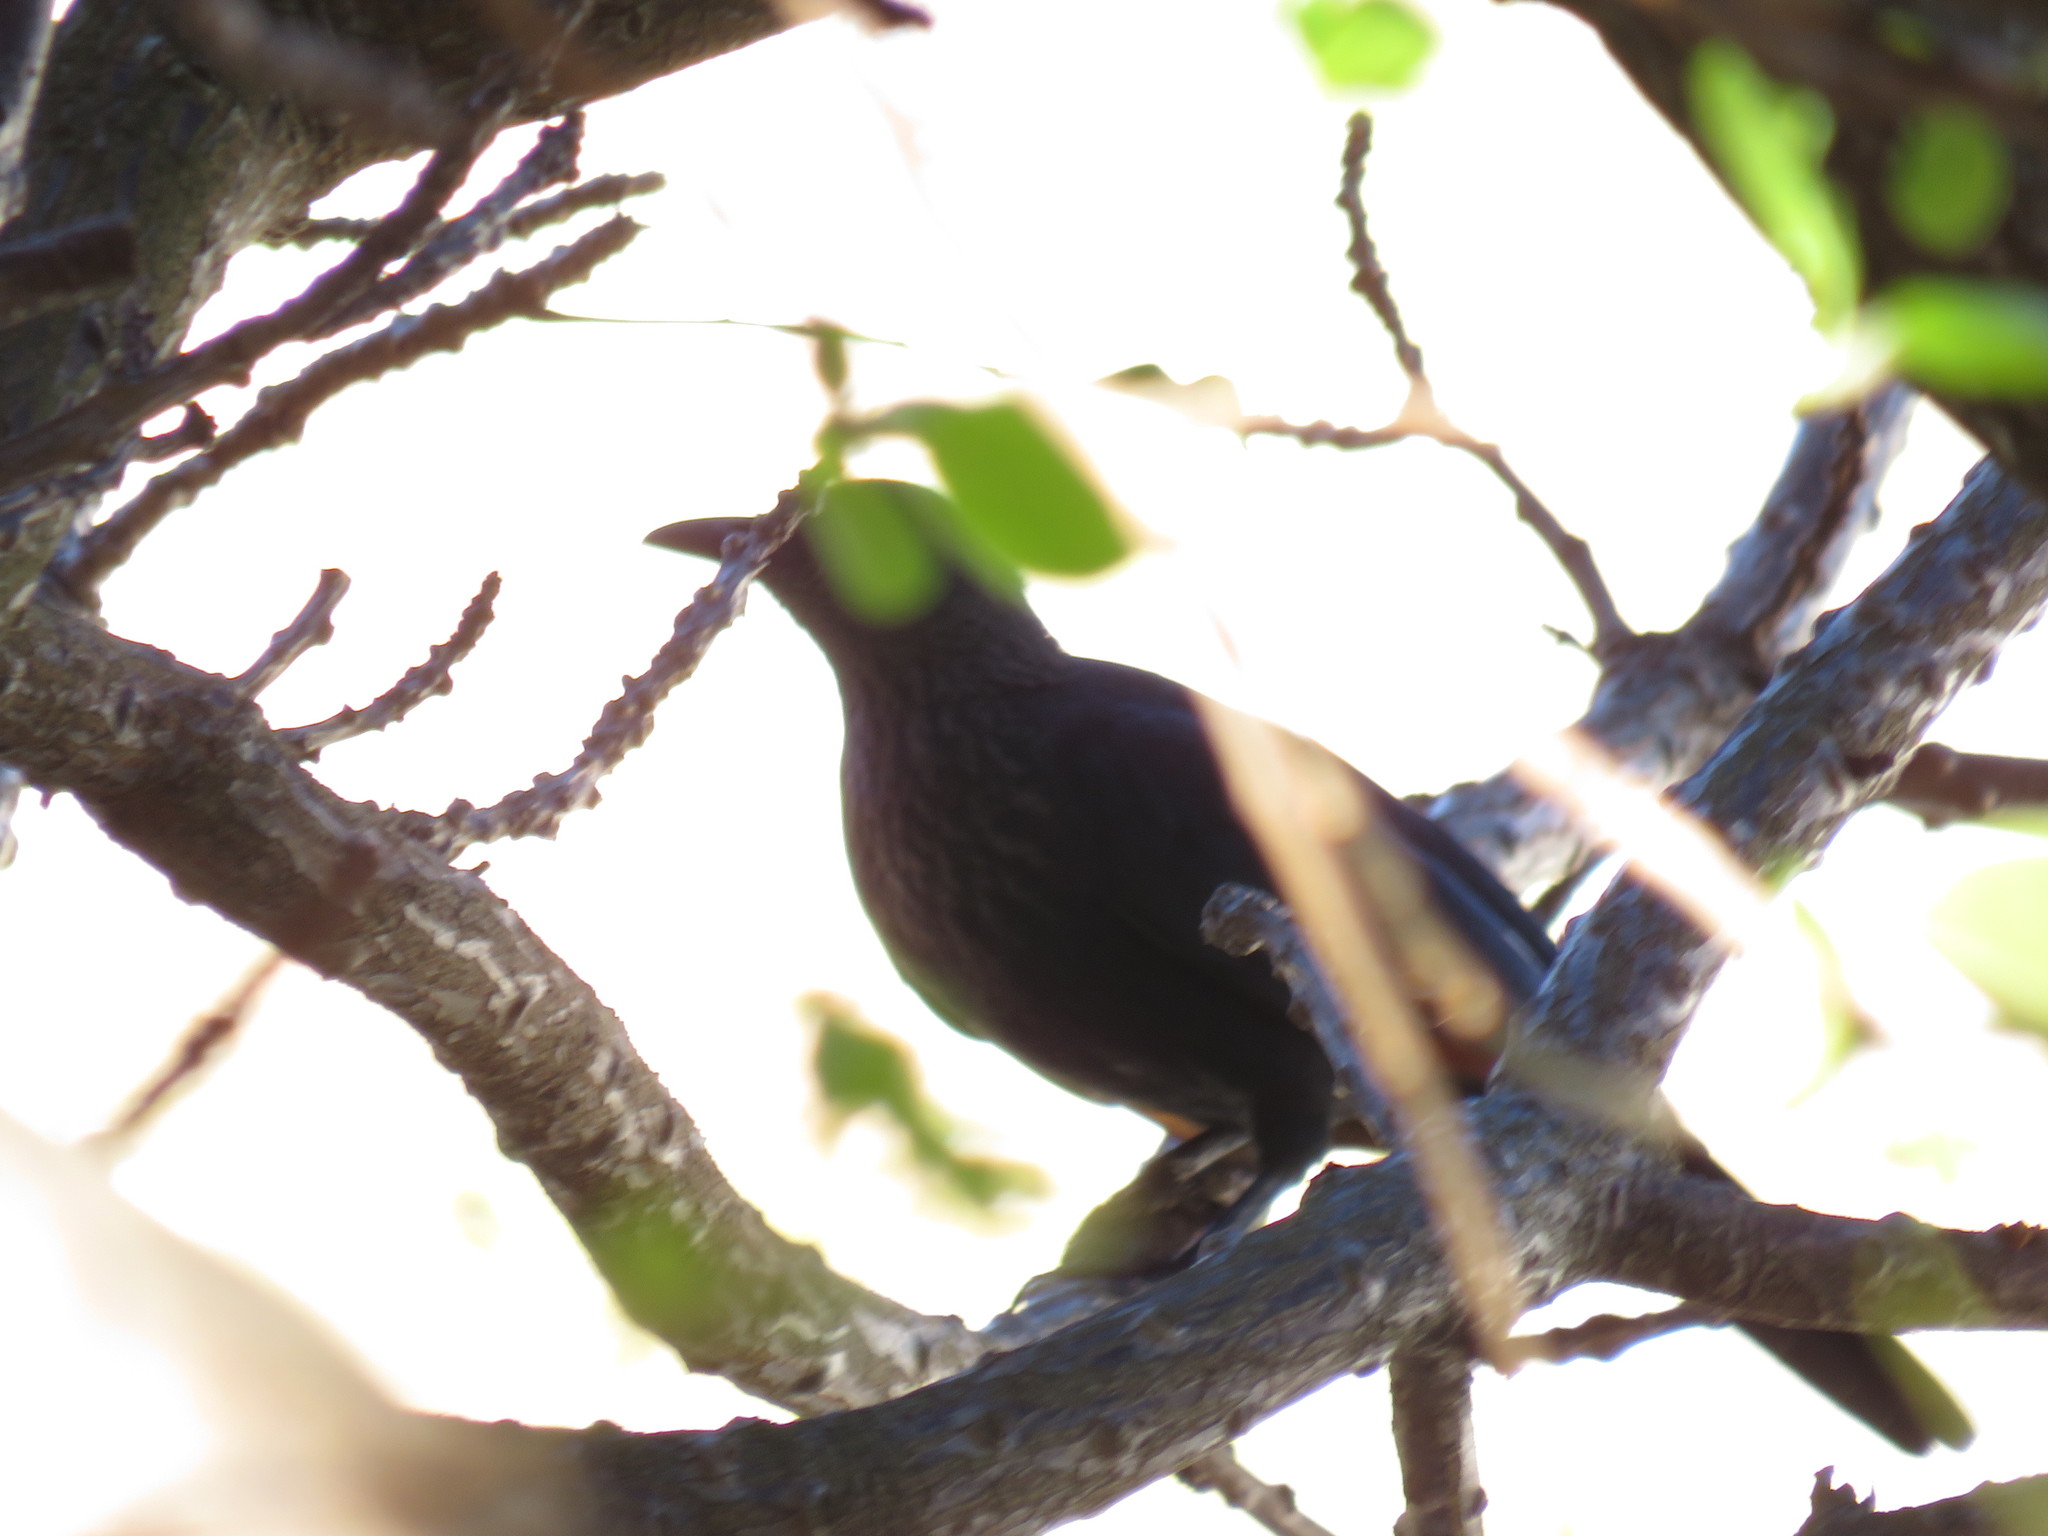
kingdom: Animalia
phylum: Chordata
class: Aves
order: Passeriformes
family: Sturnidae
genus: Onychognathus
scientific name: Onychognathus morio
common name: Red-winged starling
